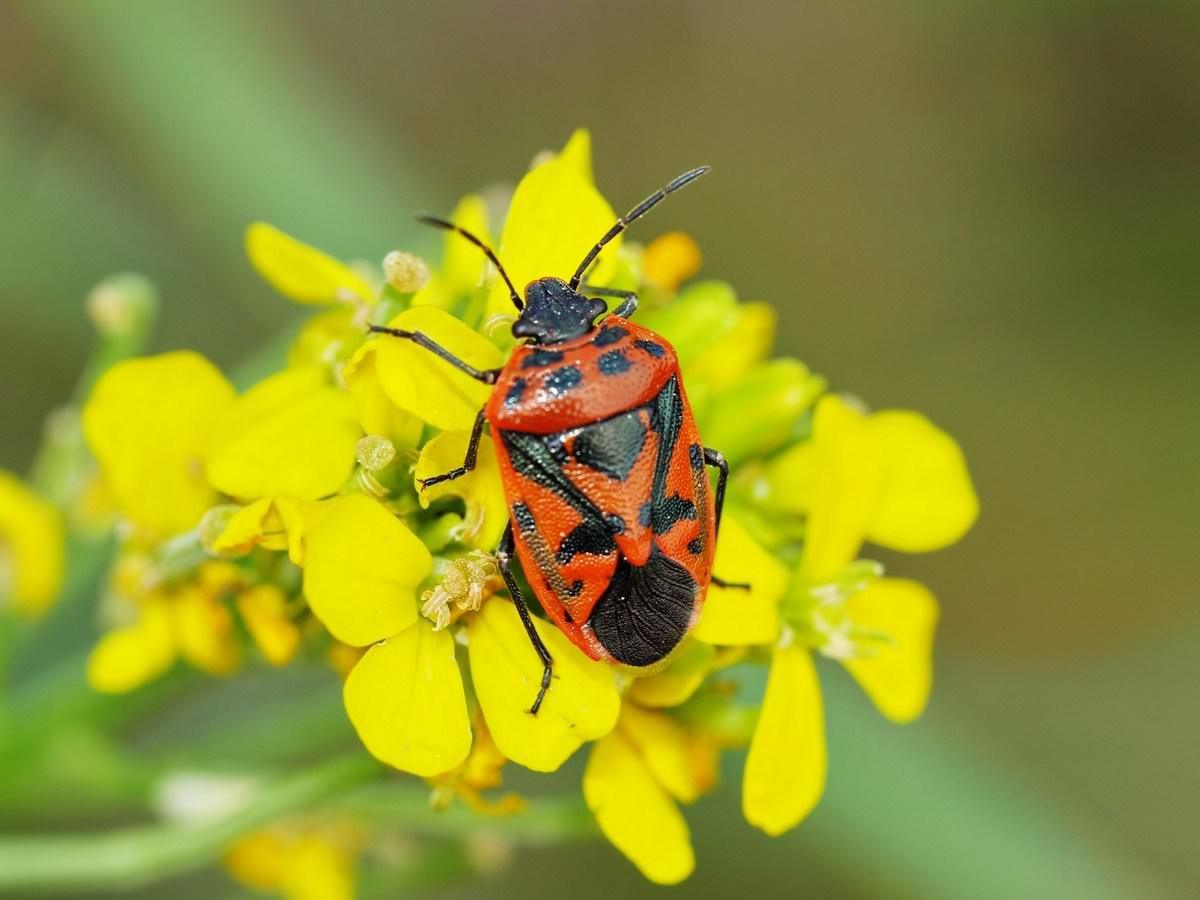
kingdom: Animalia
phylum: Arthropoda
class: Insecta
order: Hemiptera
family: Pentatomidae
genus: Eurydema
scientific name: Eurydema ornata
